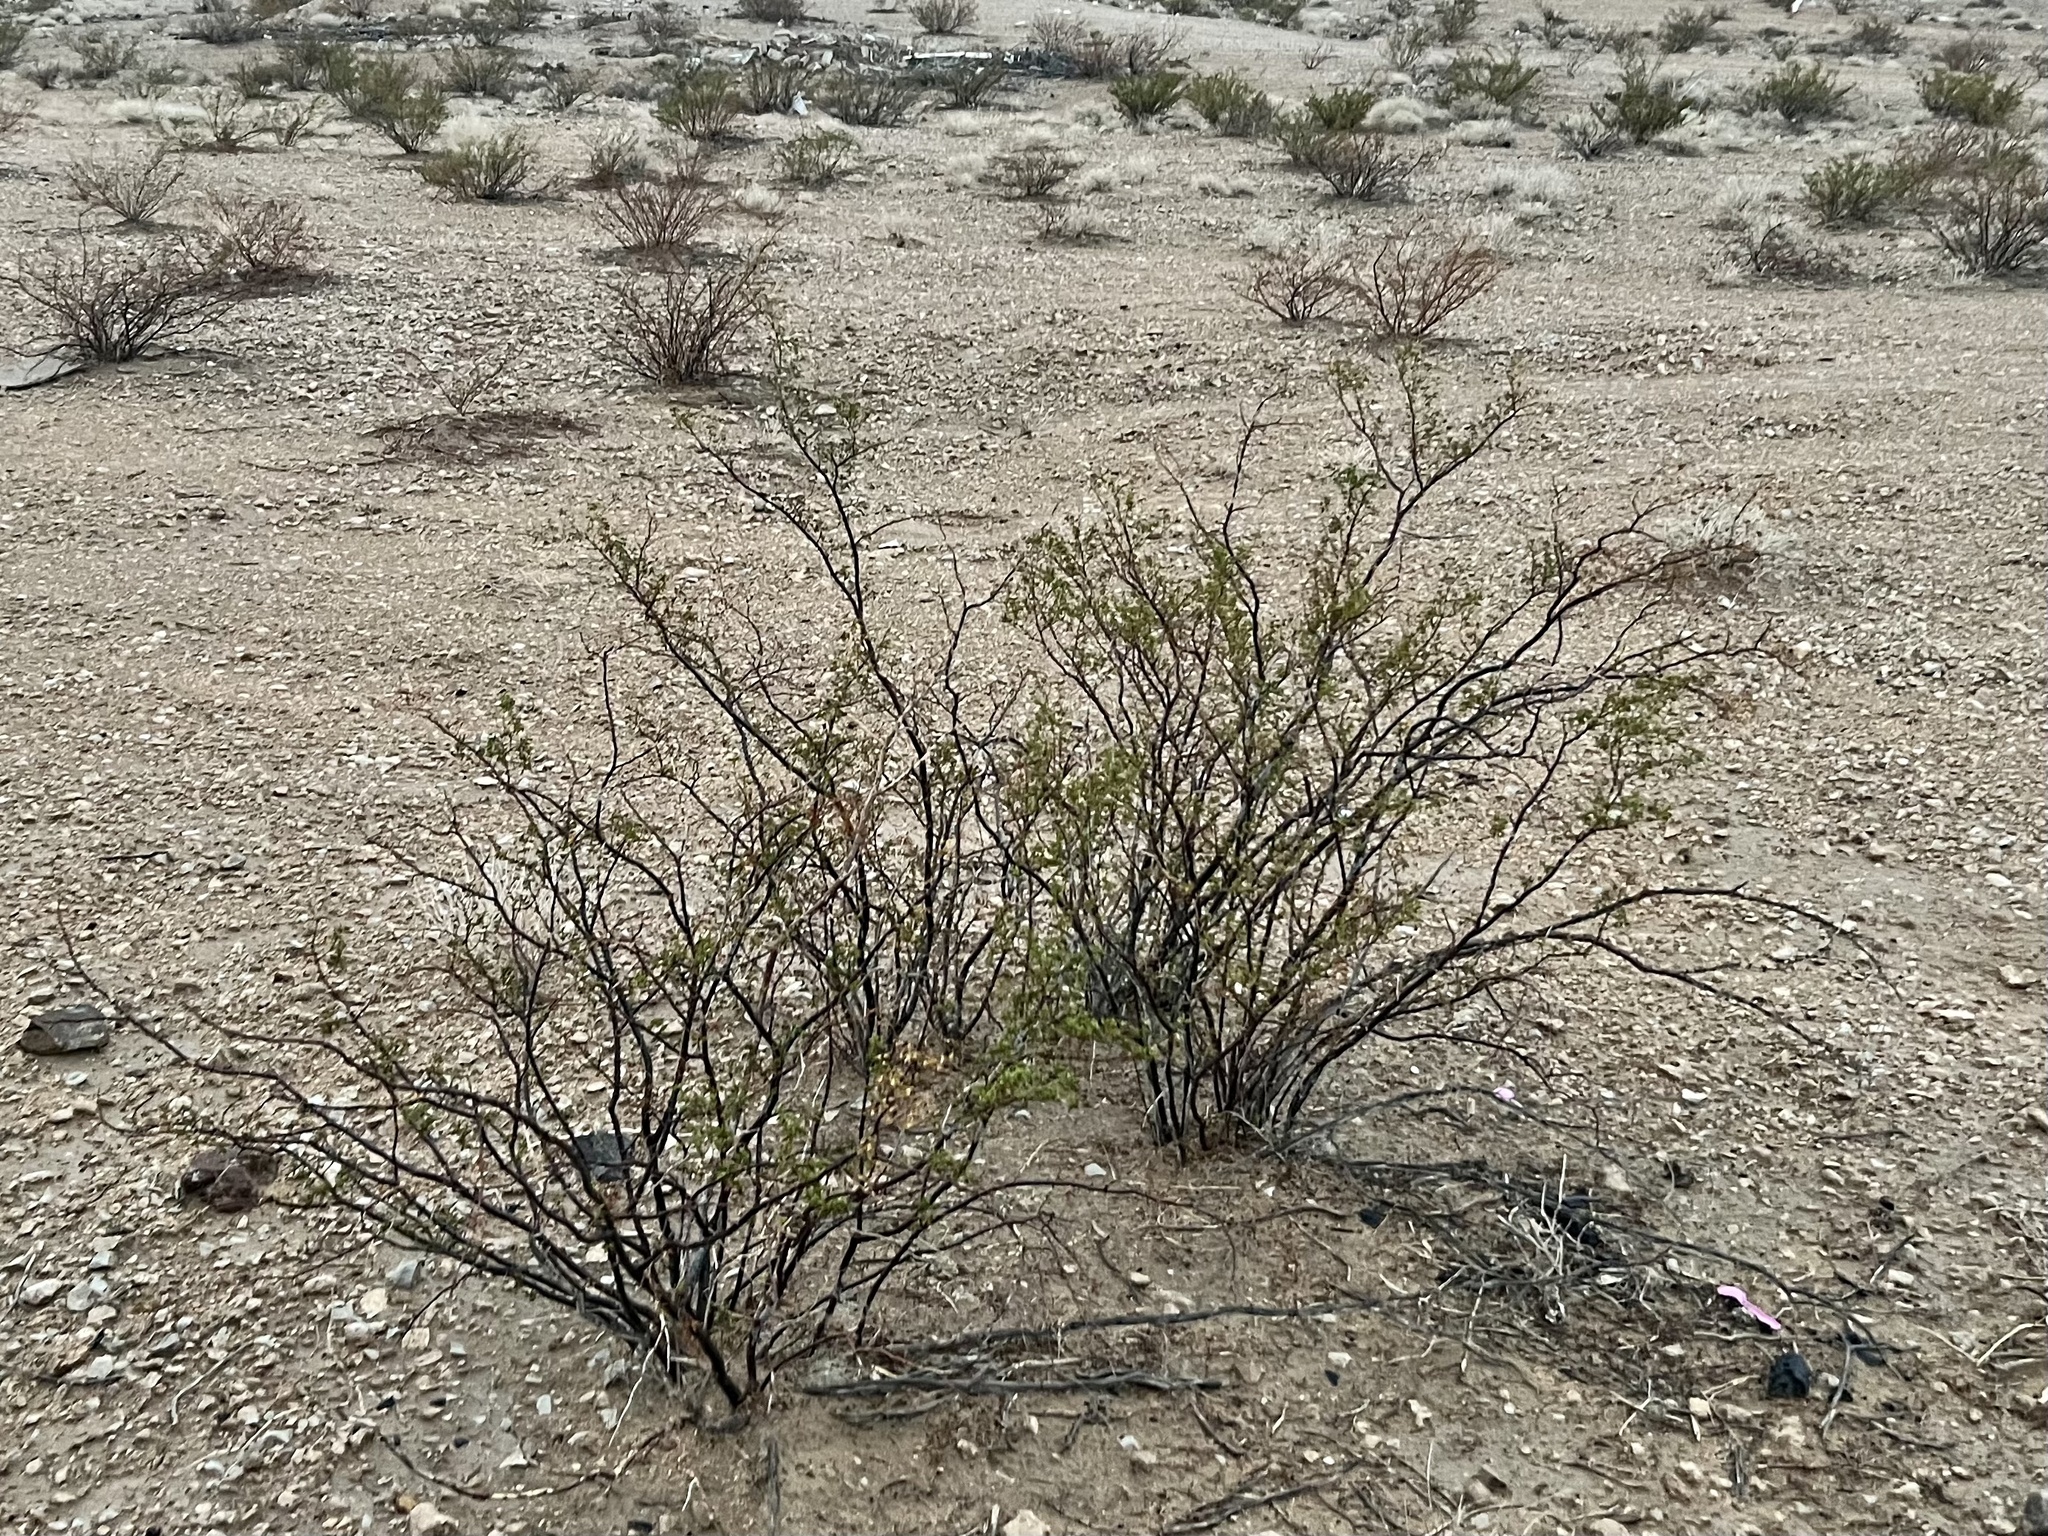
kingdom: Plantae
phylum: Tracheophyta
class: Magnoliopsida
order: Zygophyllales
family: Zygophyllaceae
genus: Larrea
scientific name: Larrea tridentata
